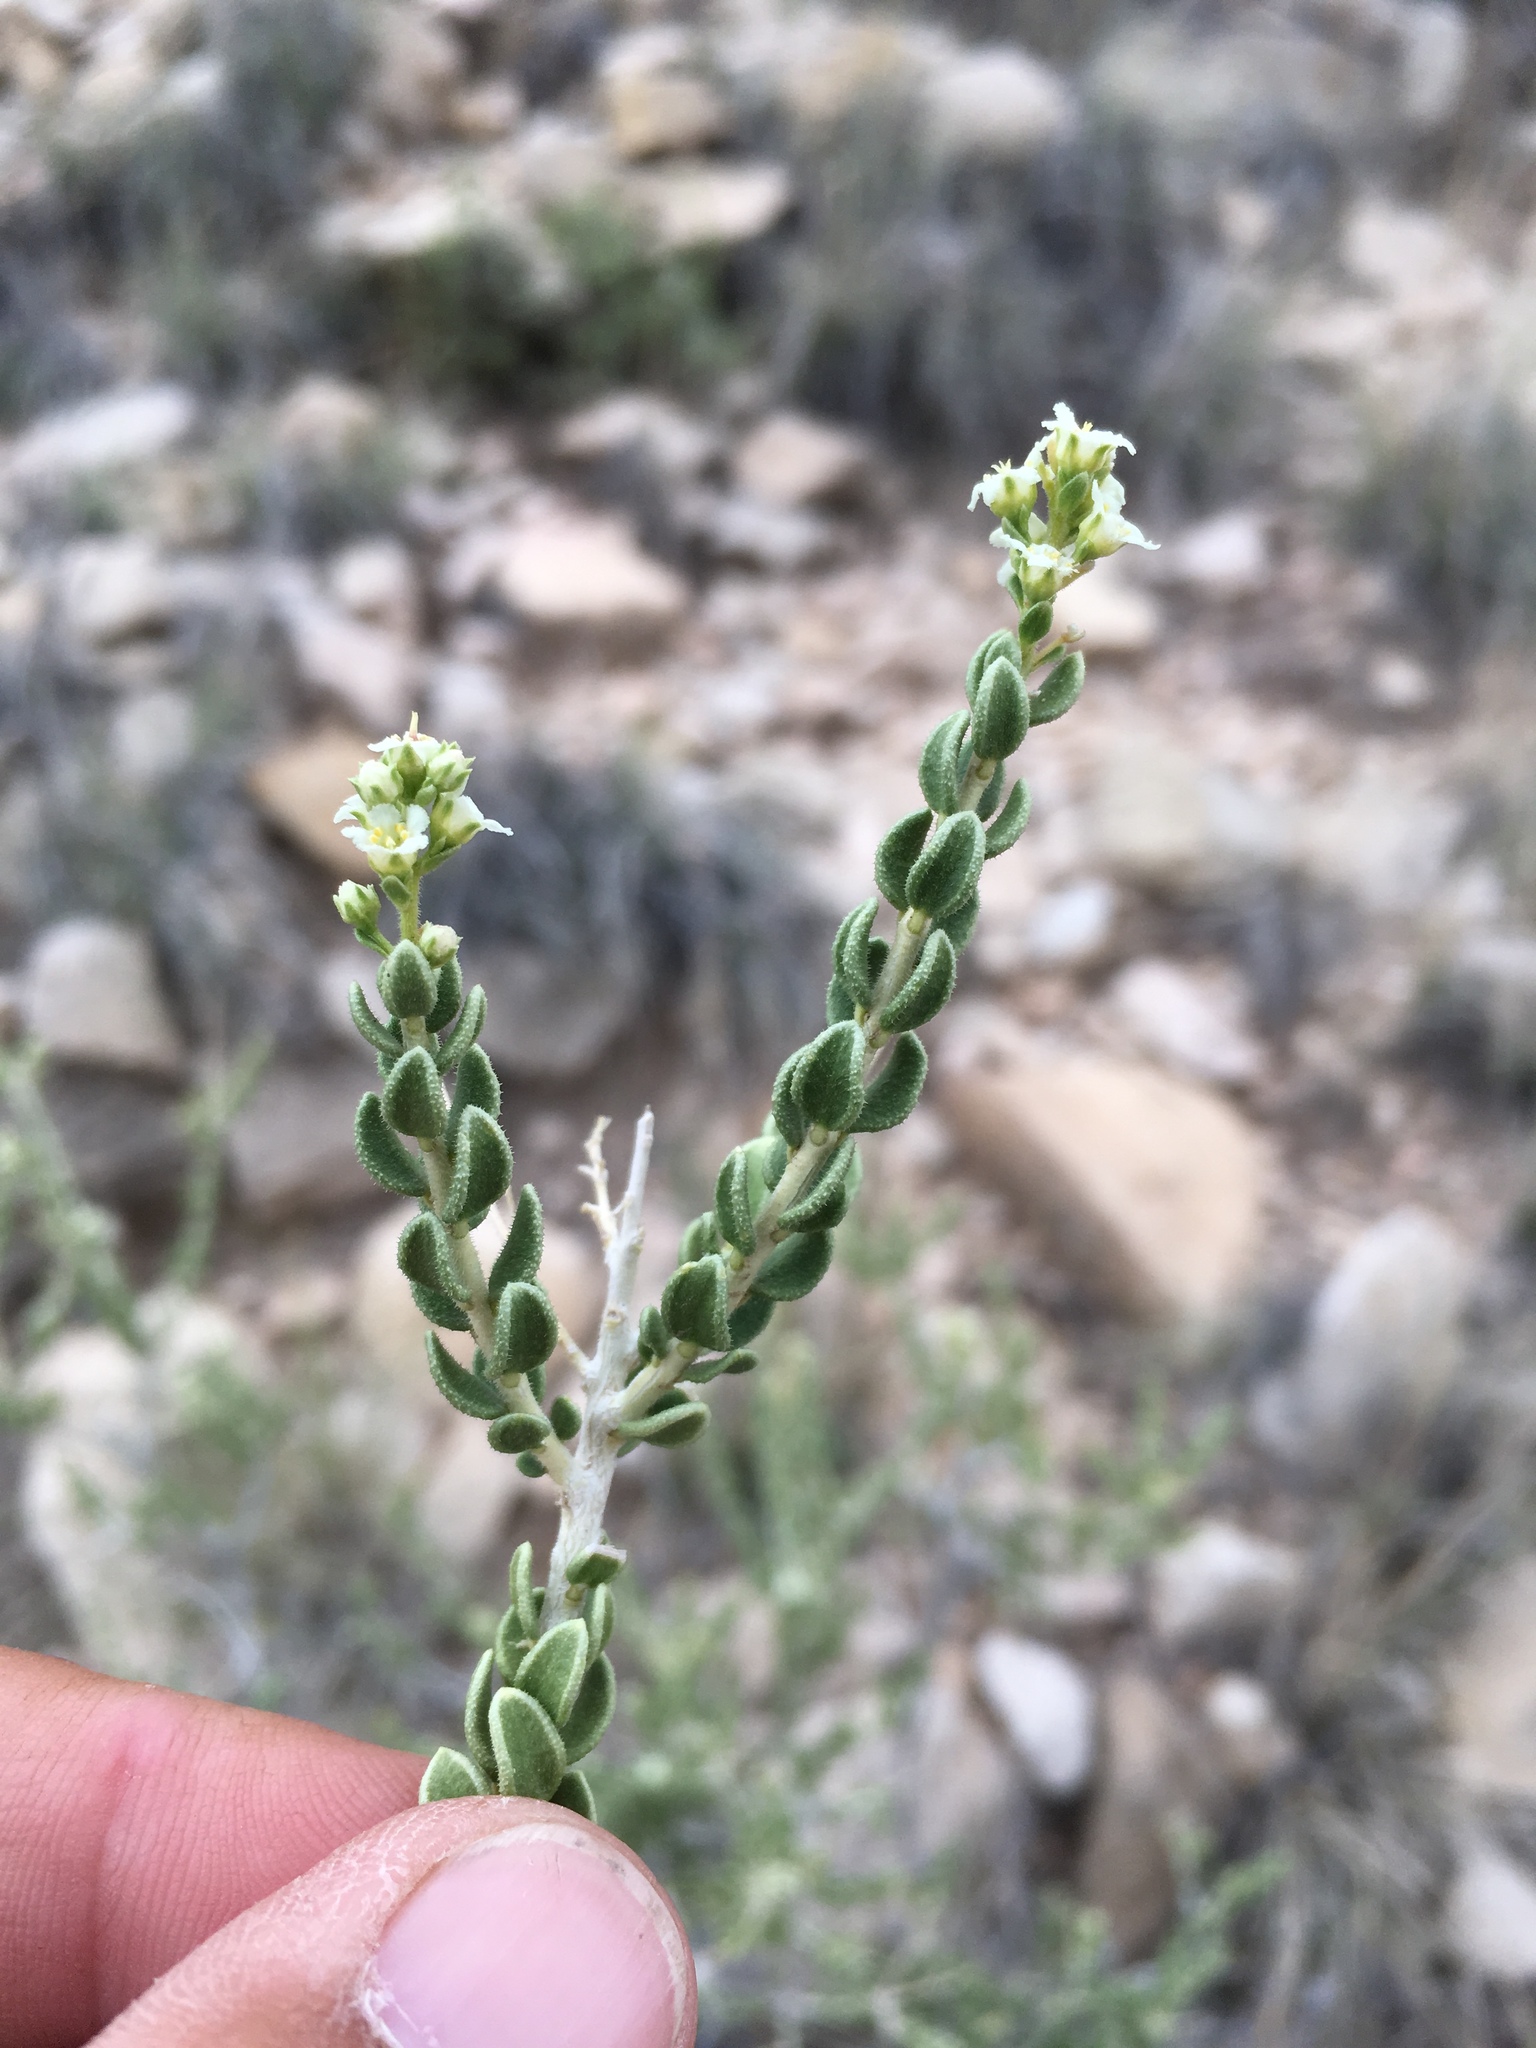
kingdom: Plantae
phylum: Tracheophyta
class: Magnoliopsida
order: Celastrales
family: Celastraceae
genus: Mortonia
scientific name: Mortonia scabrella
